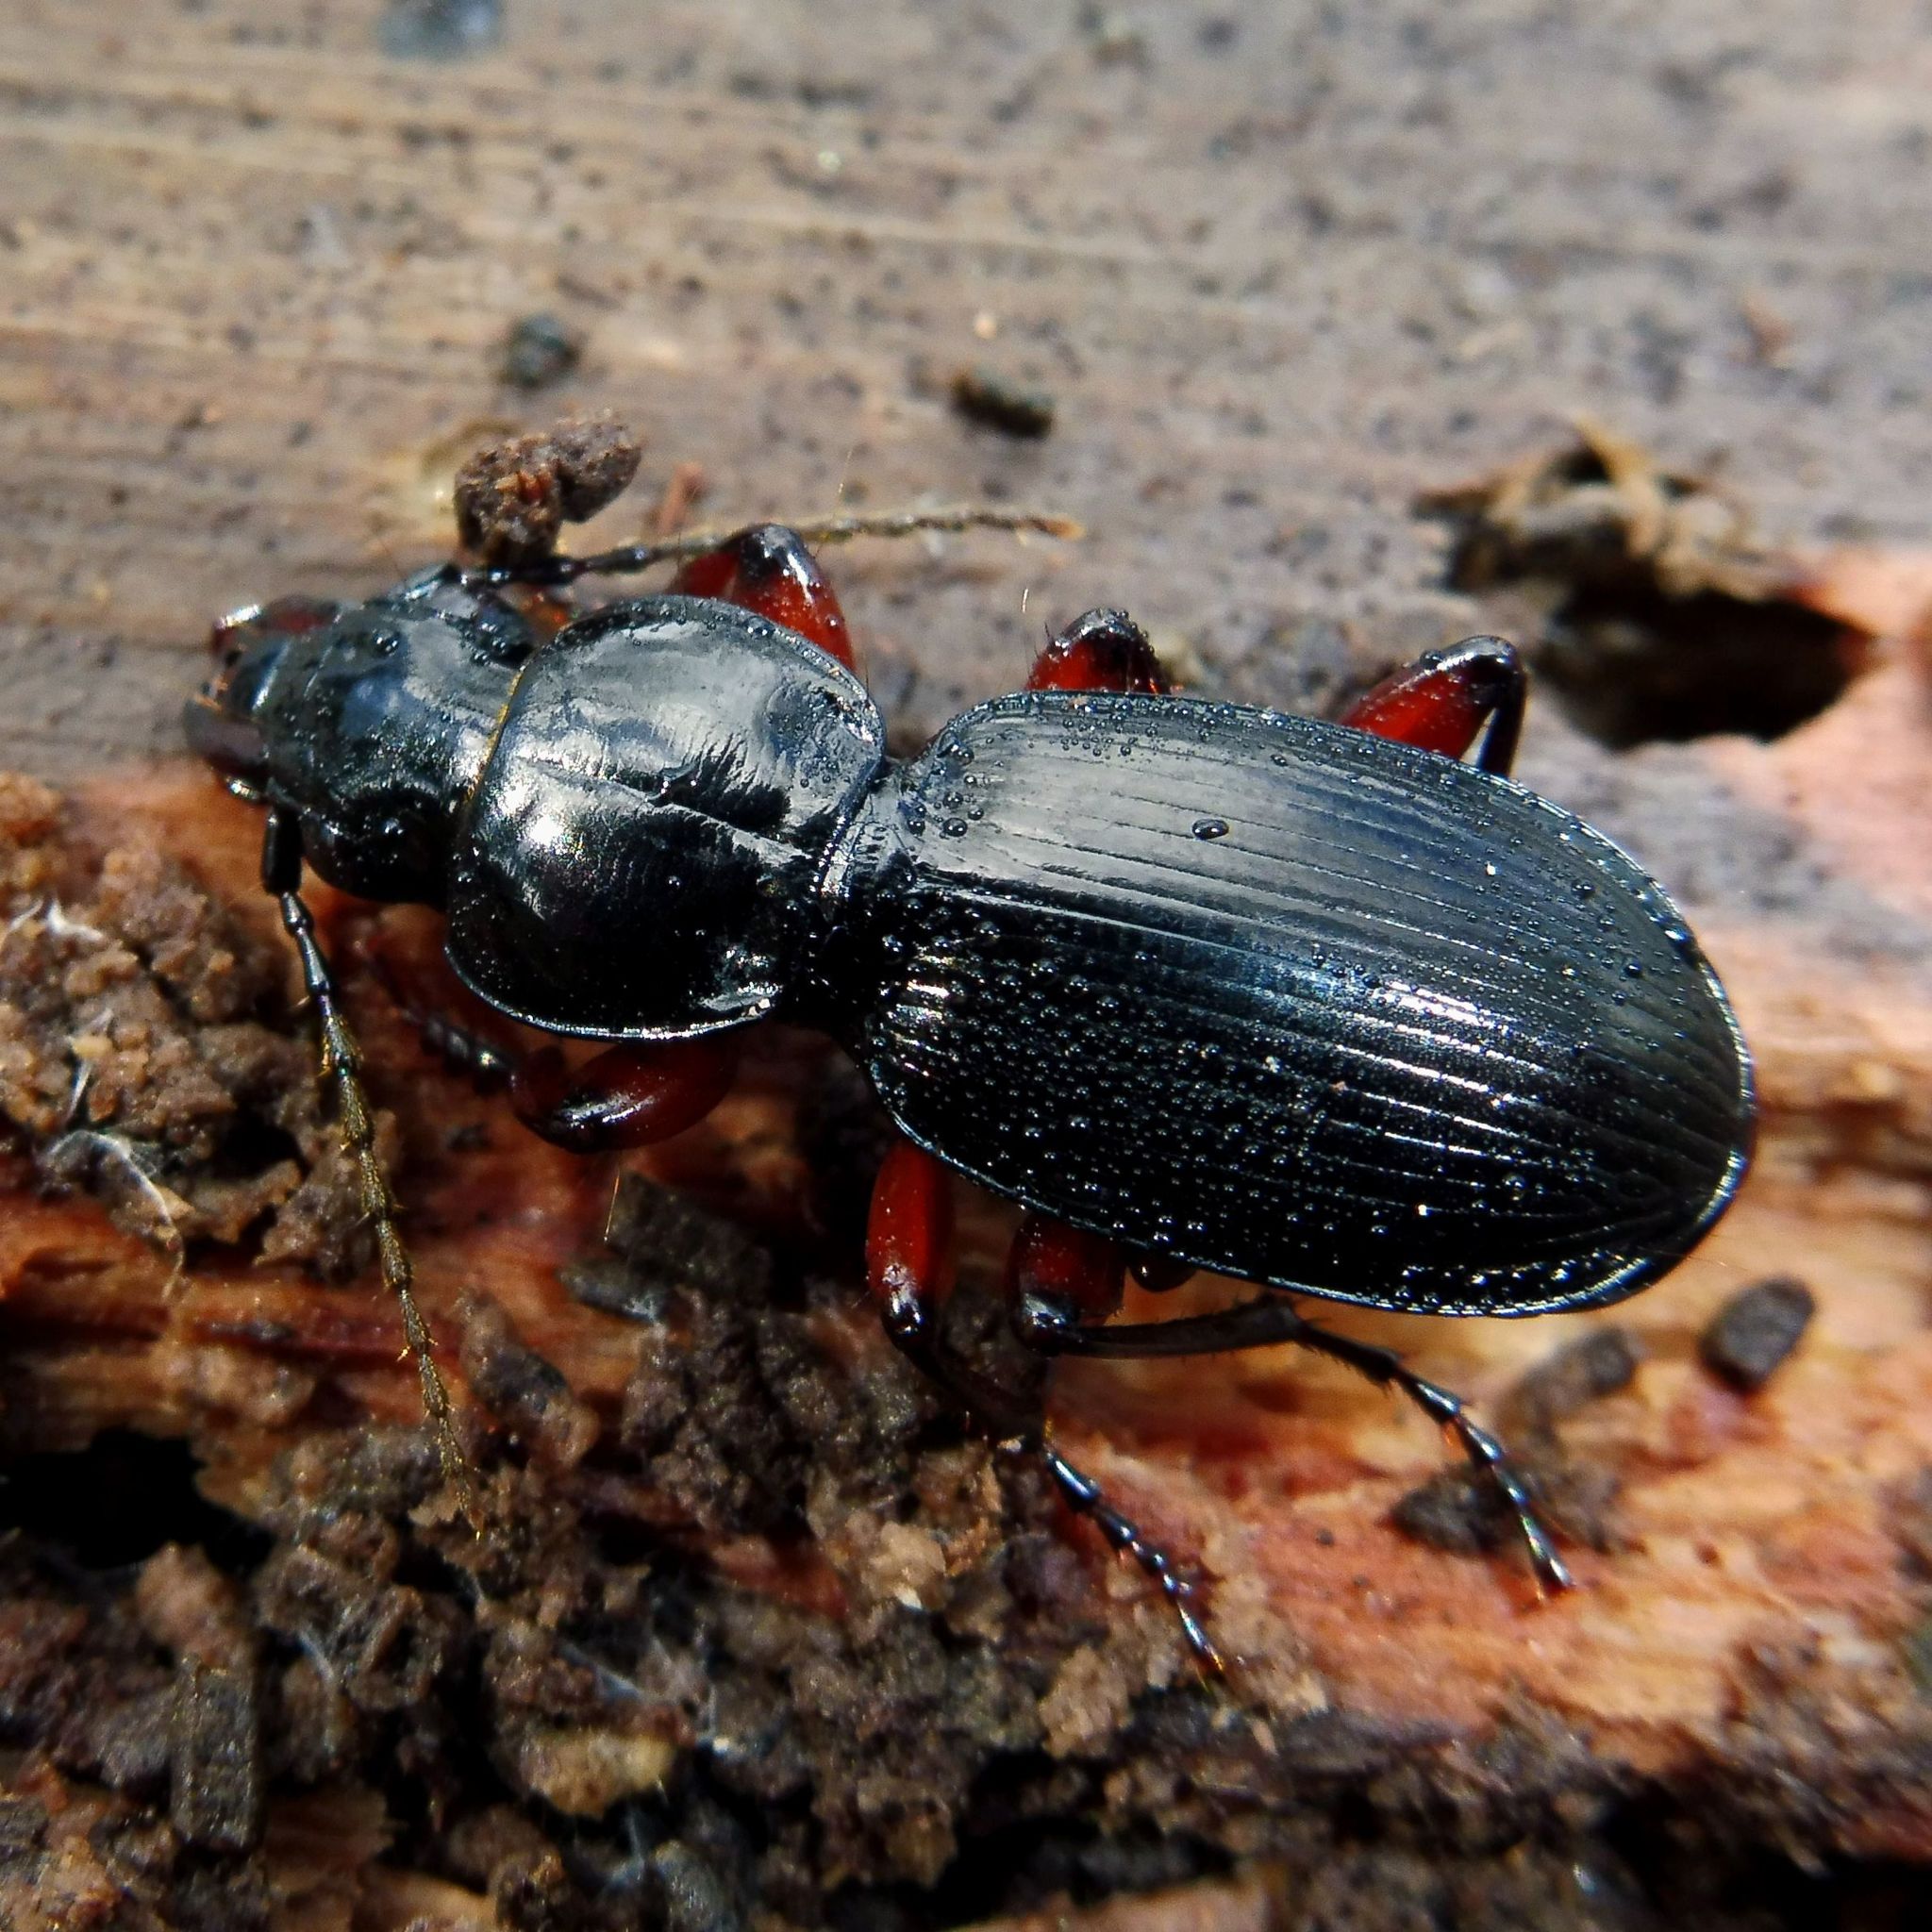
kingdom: Animalia
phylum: Arthropoda
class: Insecta
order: Coleoptera
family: Carabidae
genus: Pterostichus
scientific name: Pterostichus madidus
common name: Black clock
